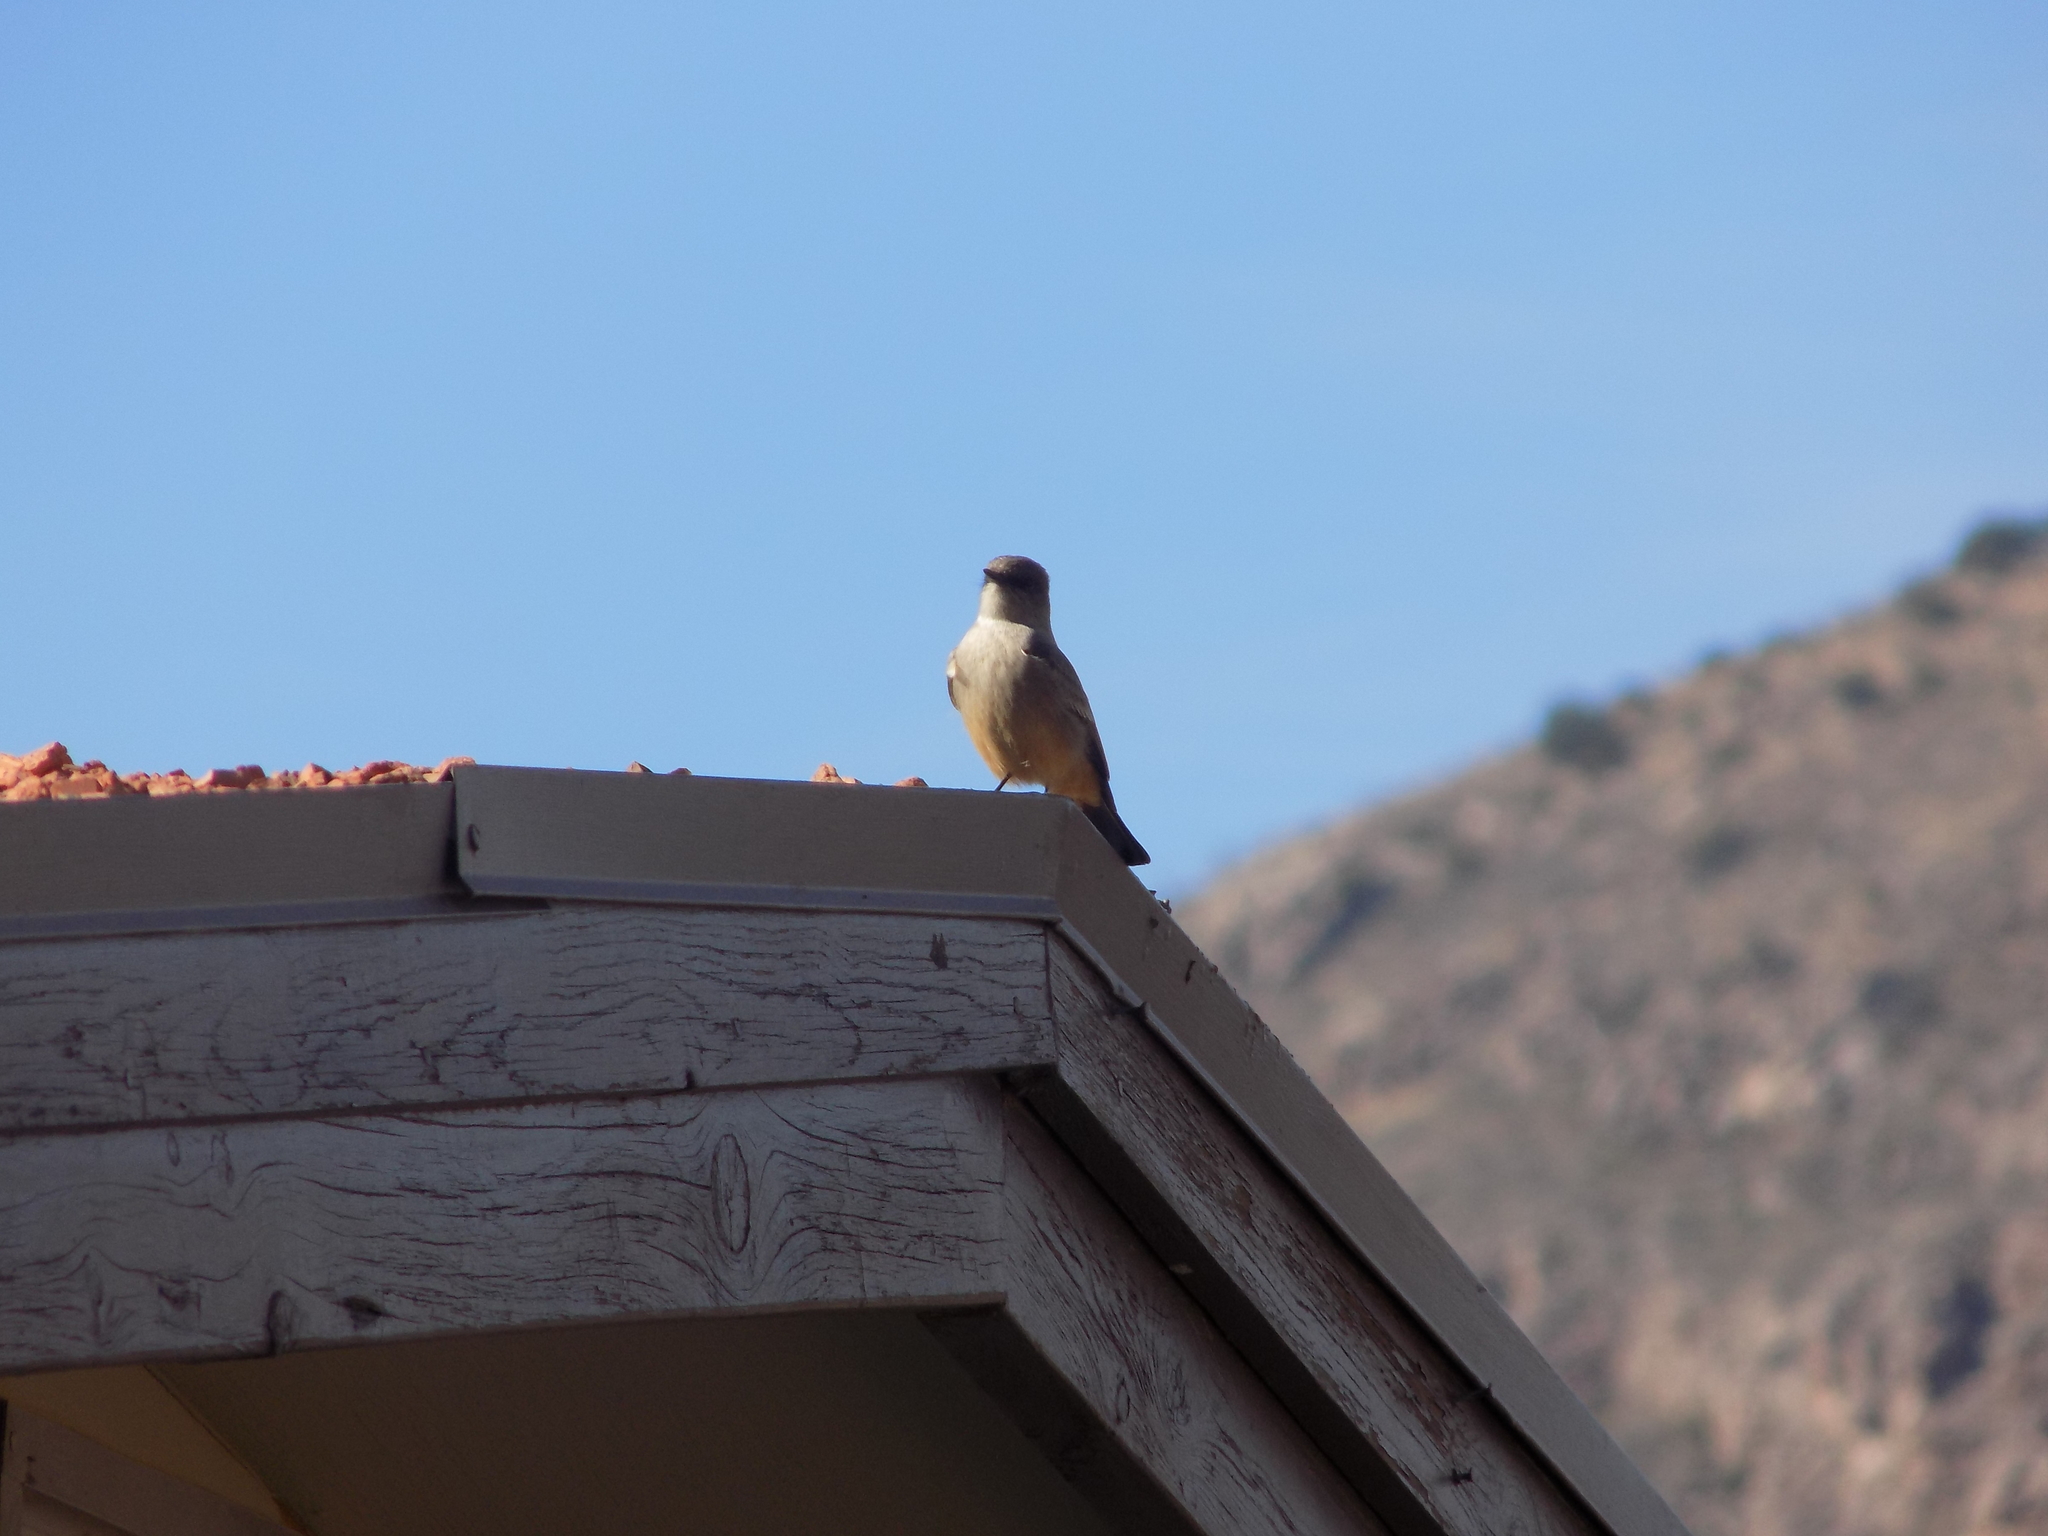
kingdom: Animalia
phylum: Chordata
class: Aves
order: Passeriformes
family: Tyrannidae
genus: Sayornis
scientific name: Sayornis saya
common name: Say's phoebe
